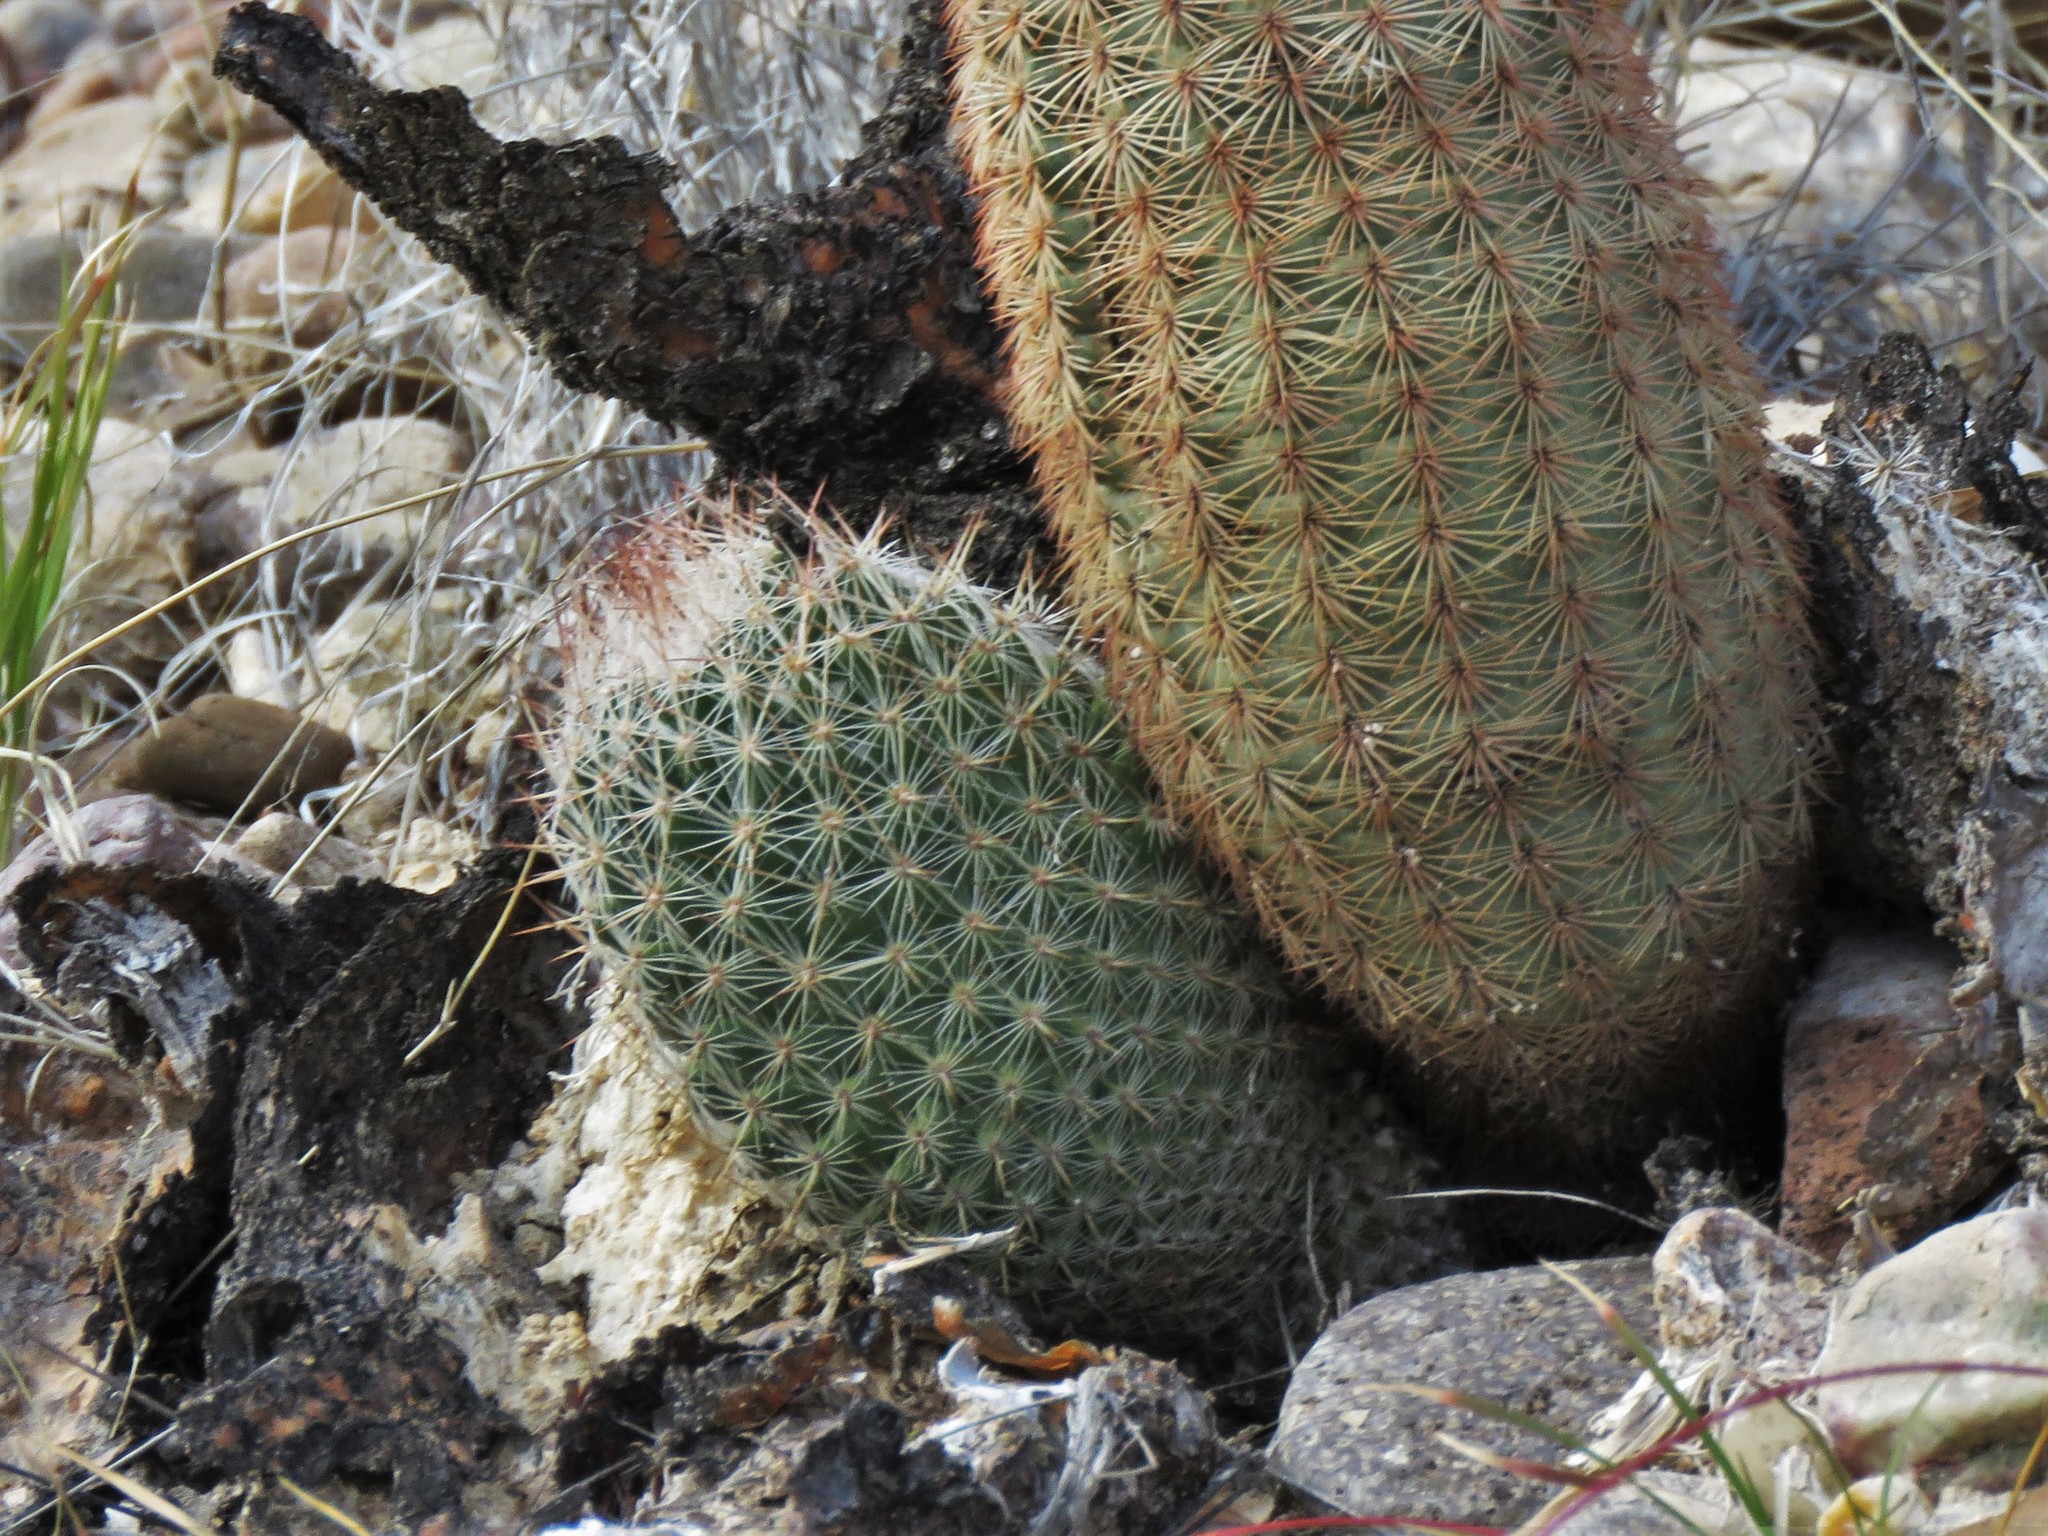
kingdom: Plantae
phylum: Tracheophyta
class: Magnoliopsida
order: Caryophyllales
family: Cactaceae
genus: Pelecyphora
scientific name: Pelecyphora tuberculosa
